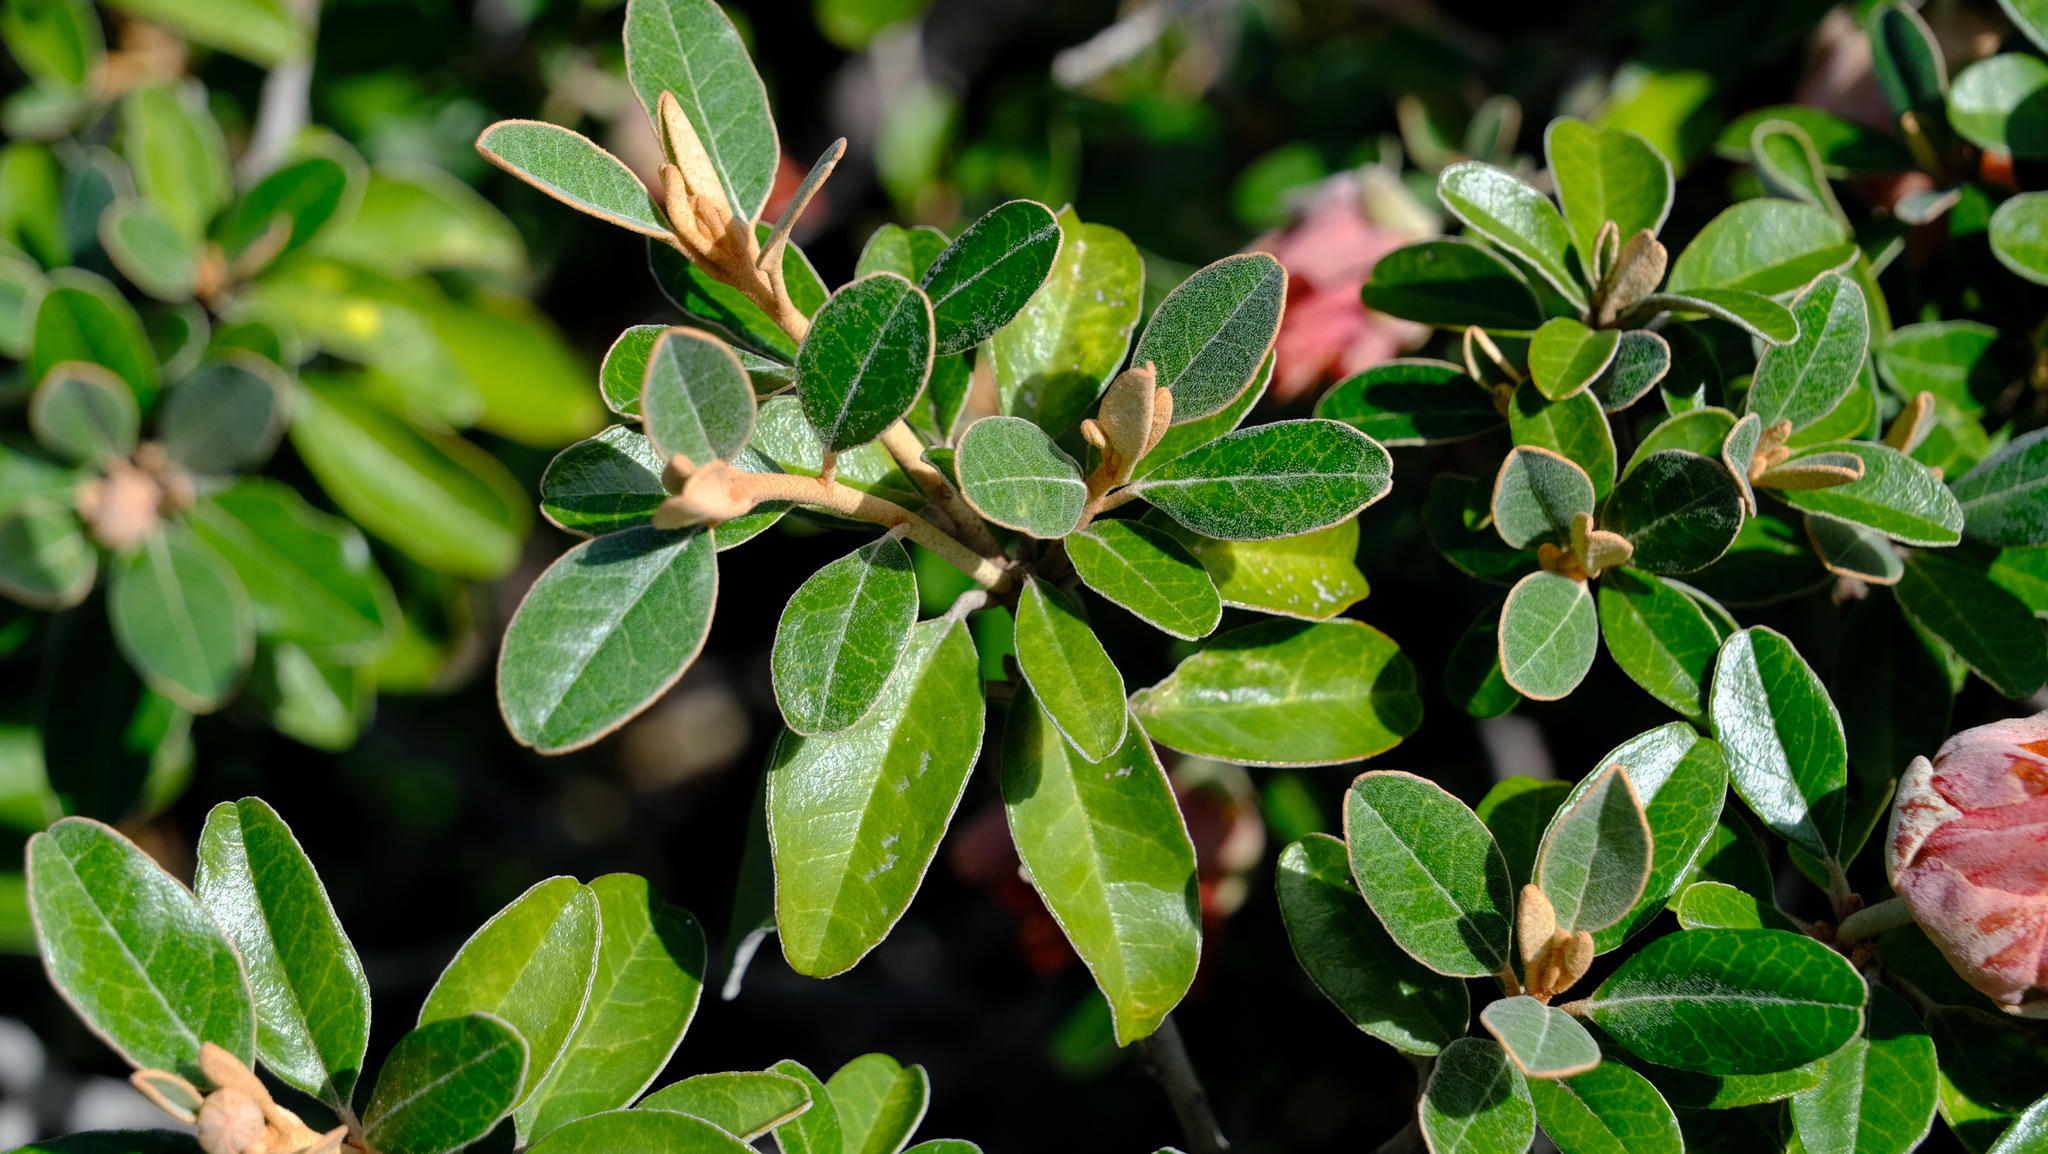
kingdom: Plantae
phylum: Tracheophyta
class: Magnoliopsida
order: Sapindales
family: Rutaceae
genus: Diplolaena
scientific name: Diplolaena grandiflora
